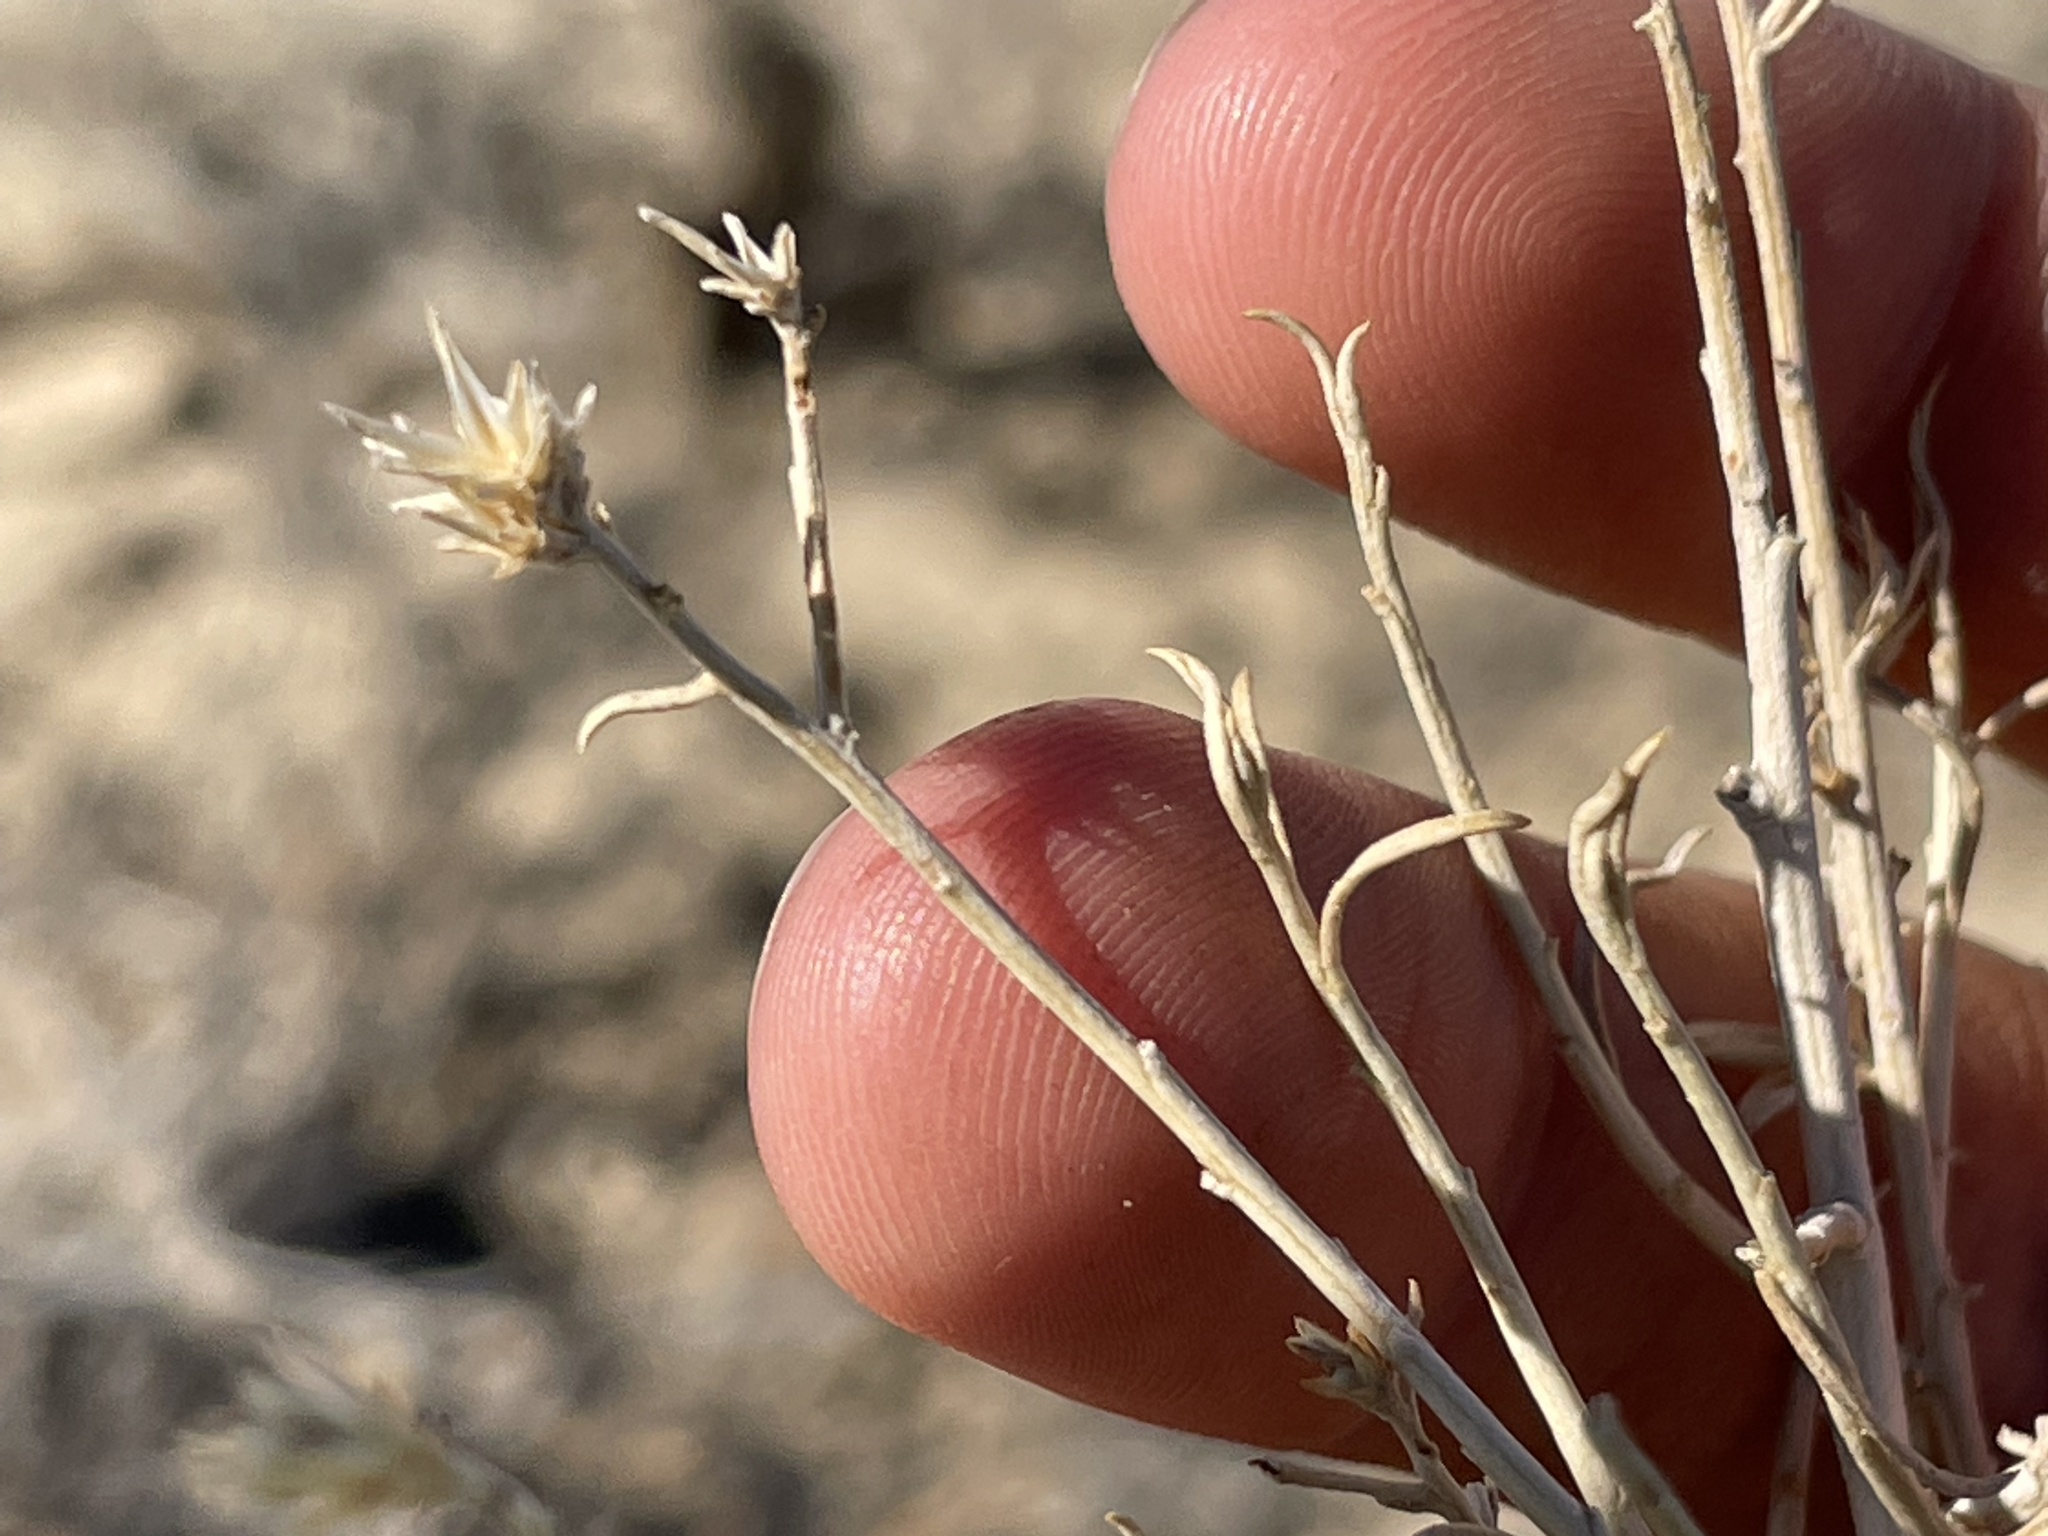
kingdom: Plantae
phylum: Tracheophyta
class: Magnoliopsida
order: Asterales
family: Asteraceae
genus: Ericameria
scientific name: Ericameria nauseosa
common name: Rubber rabbitbrush
